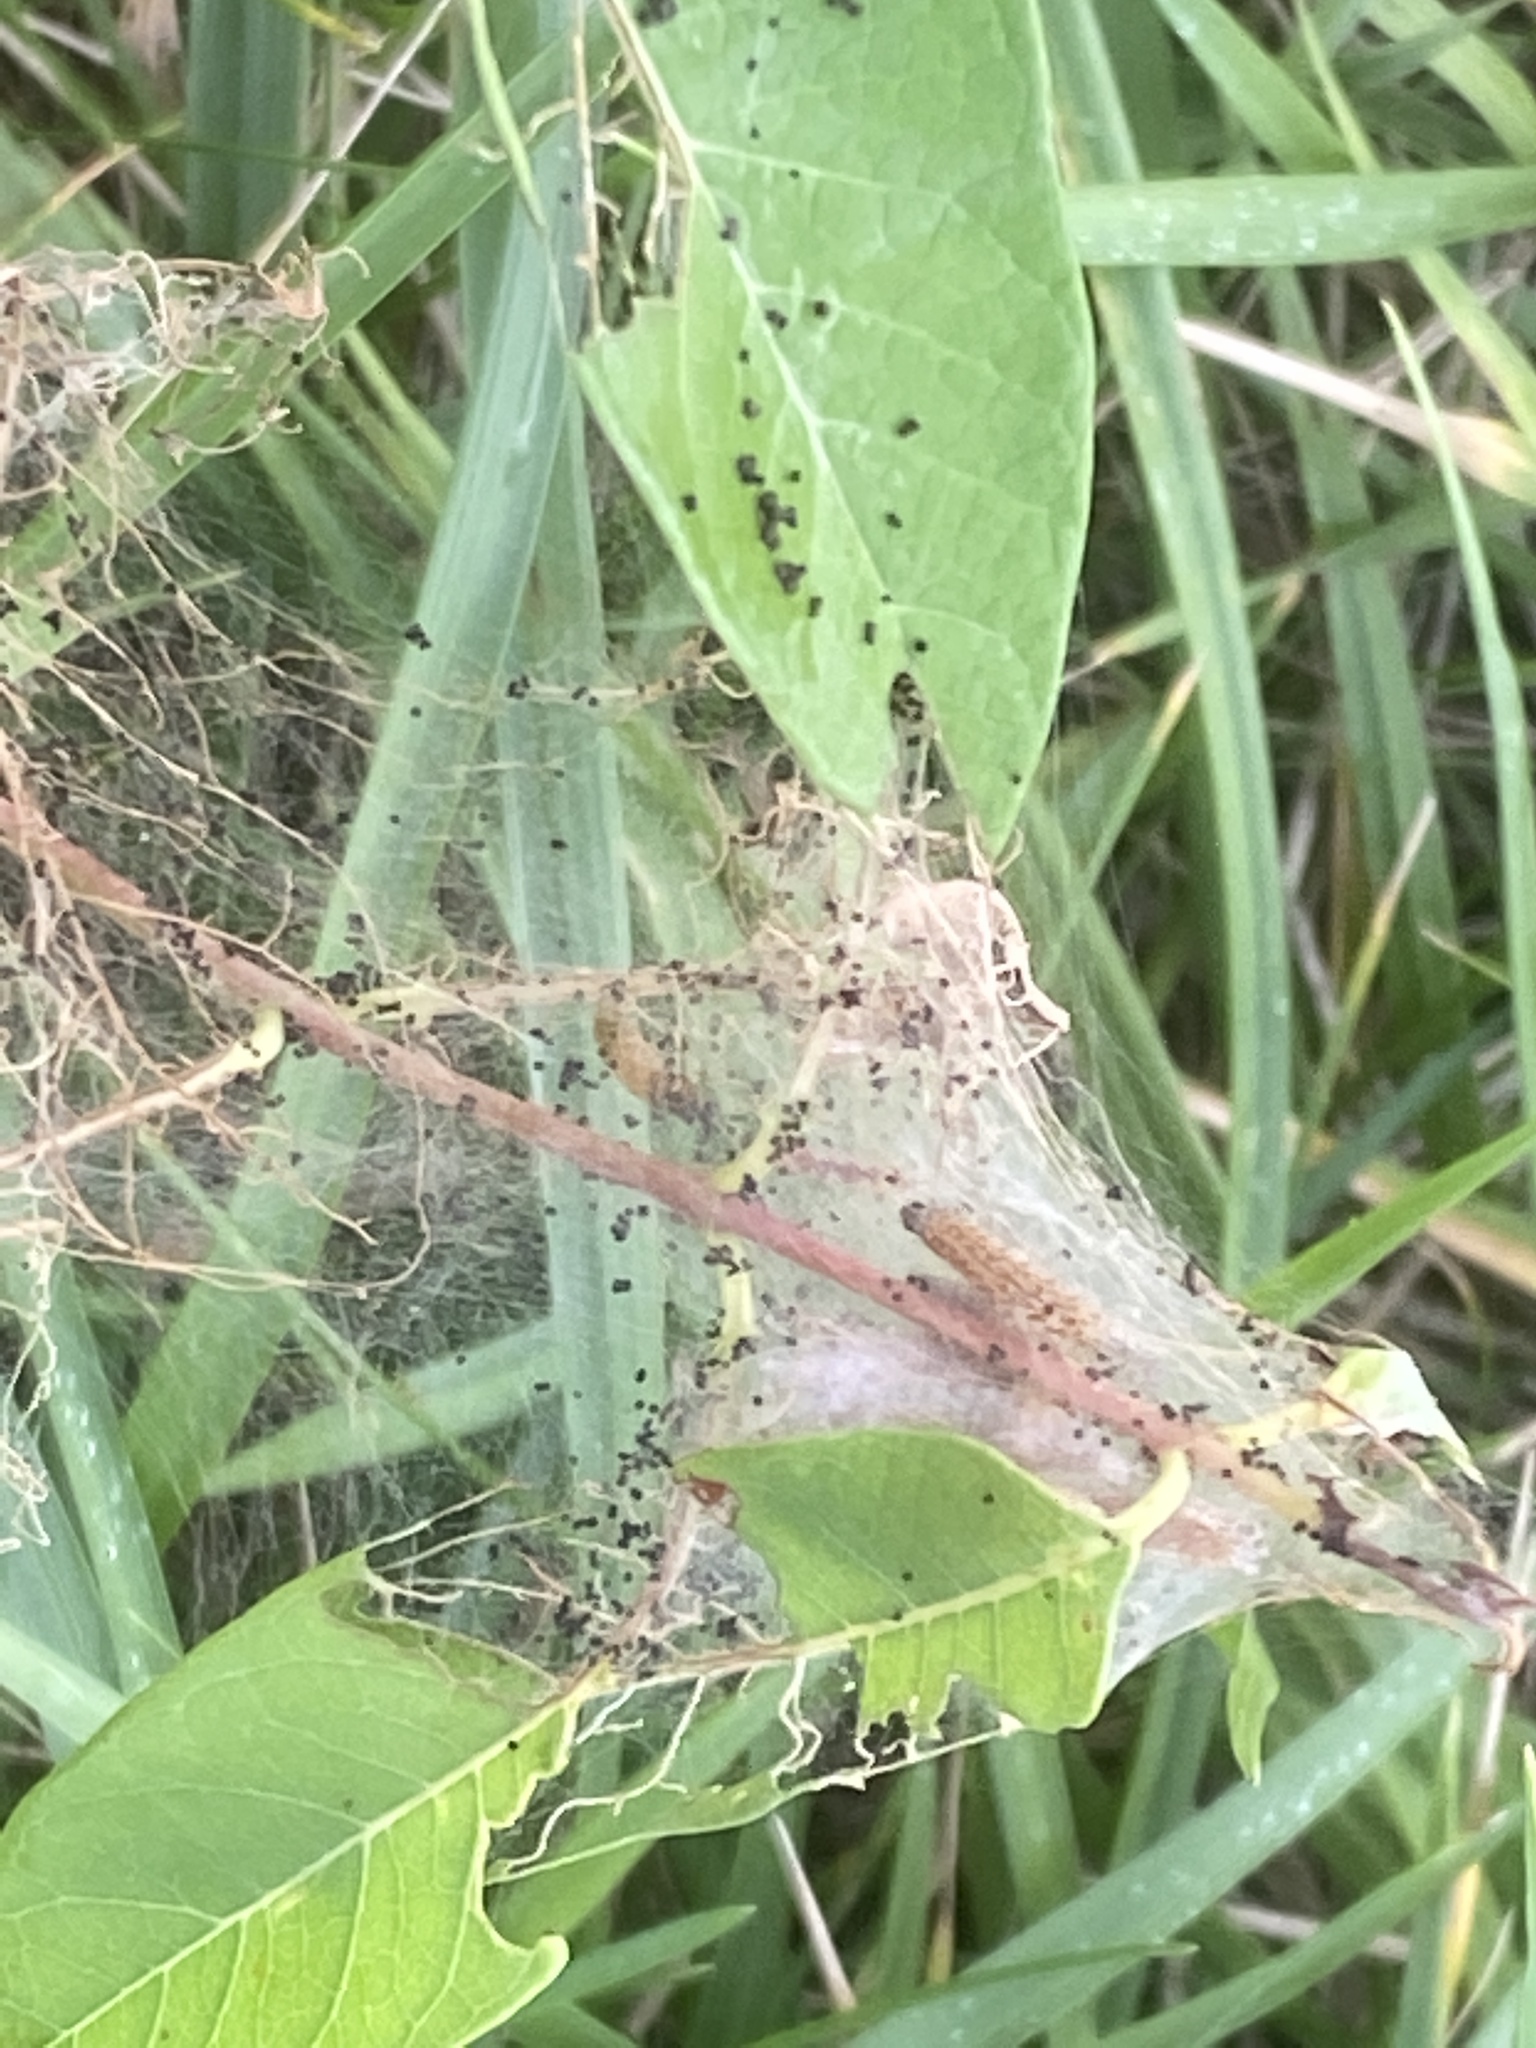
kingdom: Animalia
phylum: Arthropoda
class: Insecta
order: Lepidoptera
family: Crambidae
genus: Saucrobotys
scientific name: Saucrobotys futilalis
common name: Dogbane saucrobotys moth
